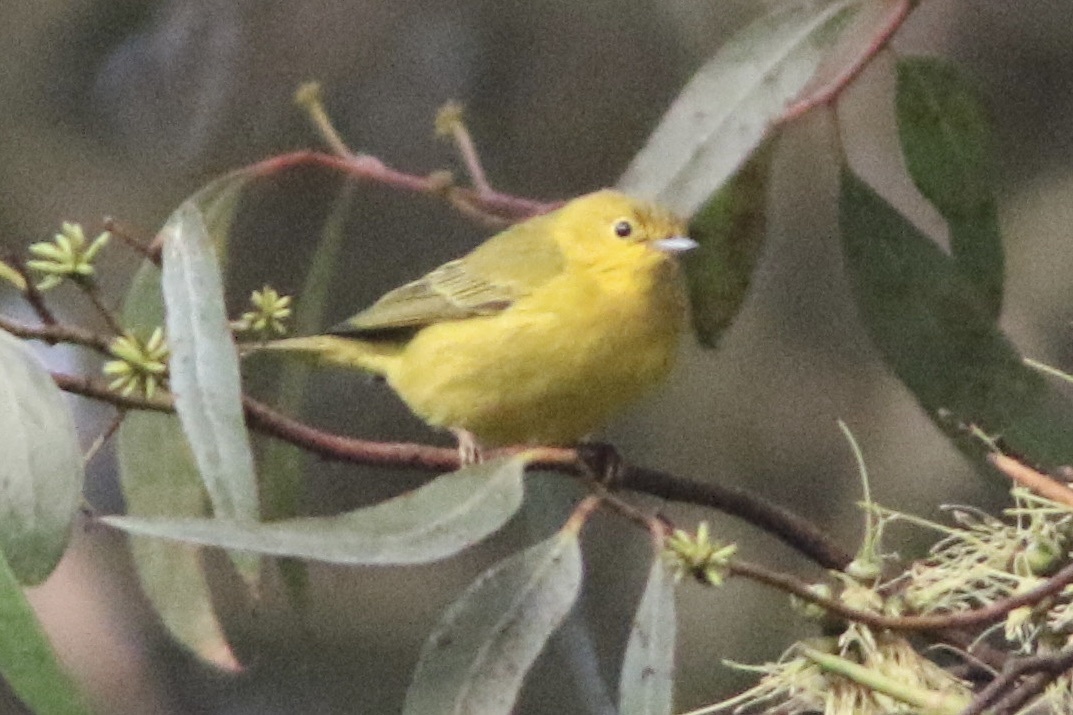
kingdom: Animalia
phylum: Chordata
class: Aves
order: Passeriformes
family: Parulidae
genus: Setophaga
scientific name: Setophaga petechia
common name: Yellow warbler
